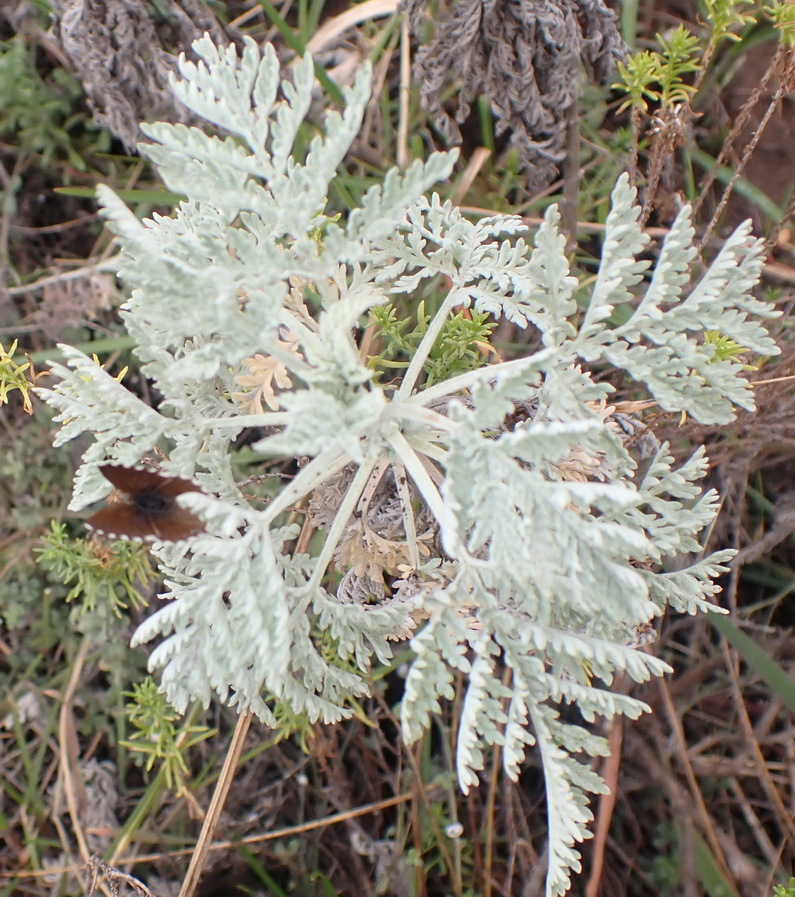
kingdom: Plantae
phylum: Tracheophyta
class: Magnoliopsida
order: Asterales
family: Asteraceae
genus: Artemisia
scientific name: Artemisia afra
